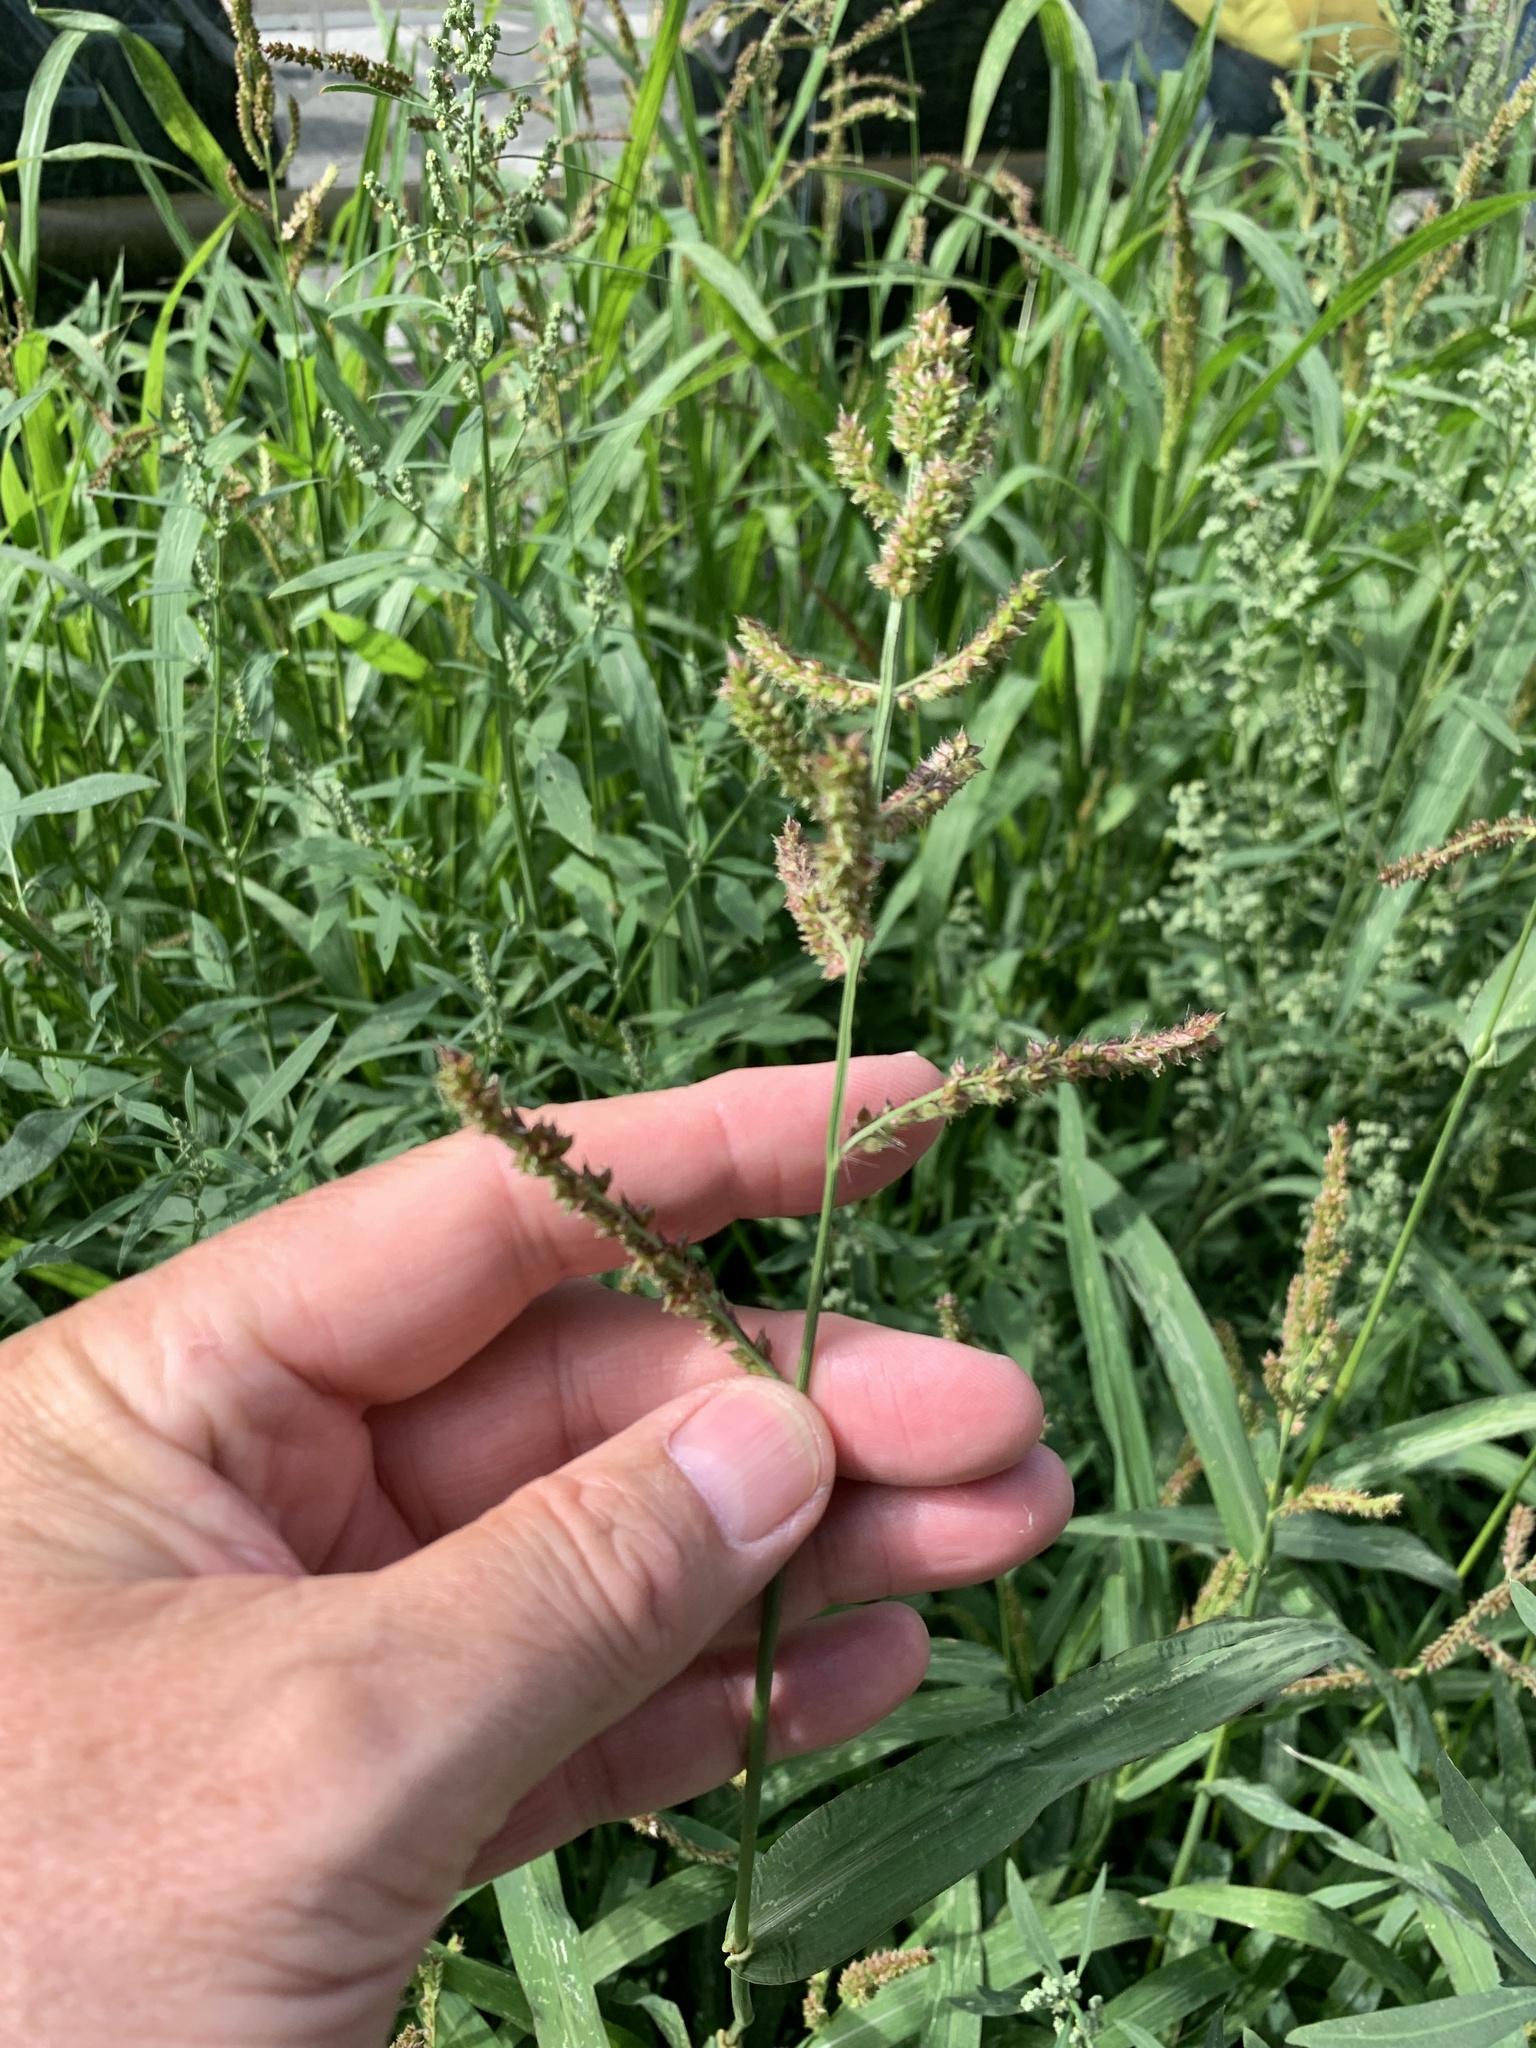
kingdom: Plantae
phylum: Tracheophyta
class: Liliopsida
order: Poales
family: Poaceae
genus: Echinochloa
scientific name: Echinochloa crus-galli
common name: Cockspur
